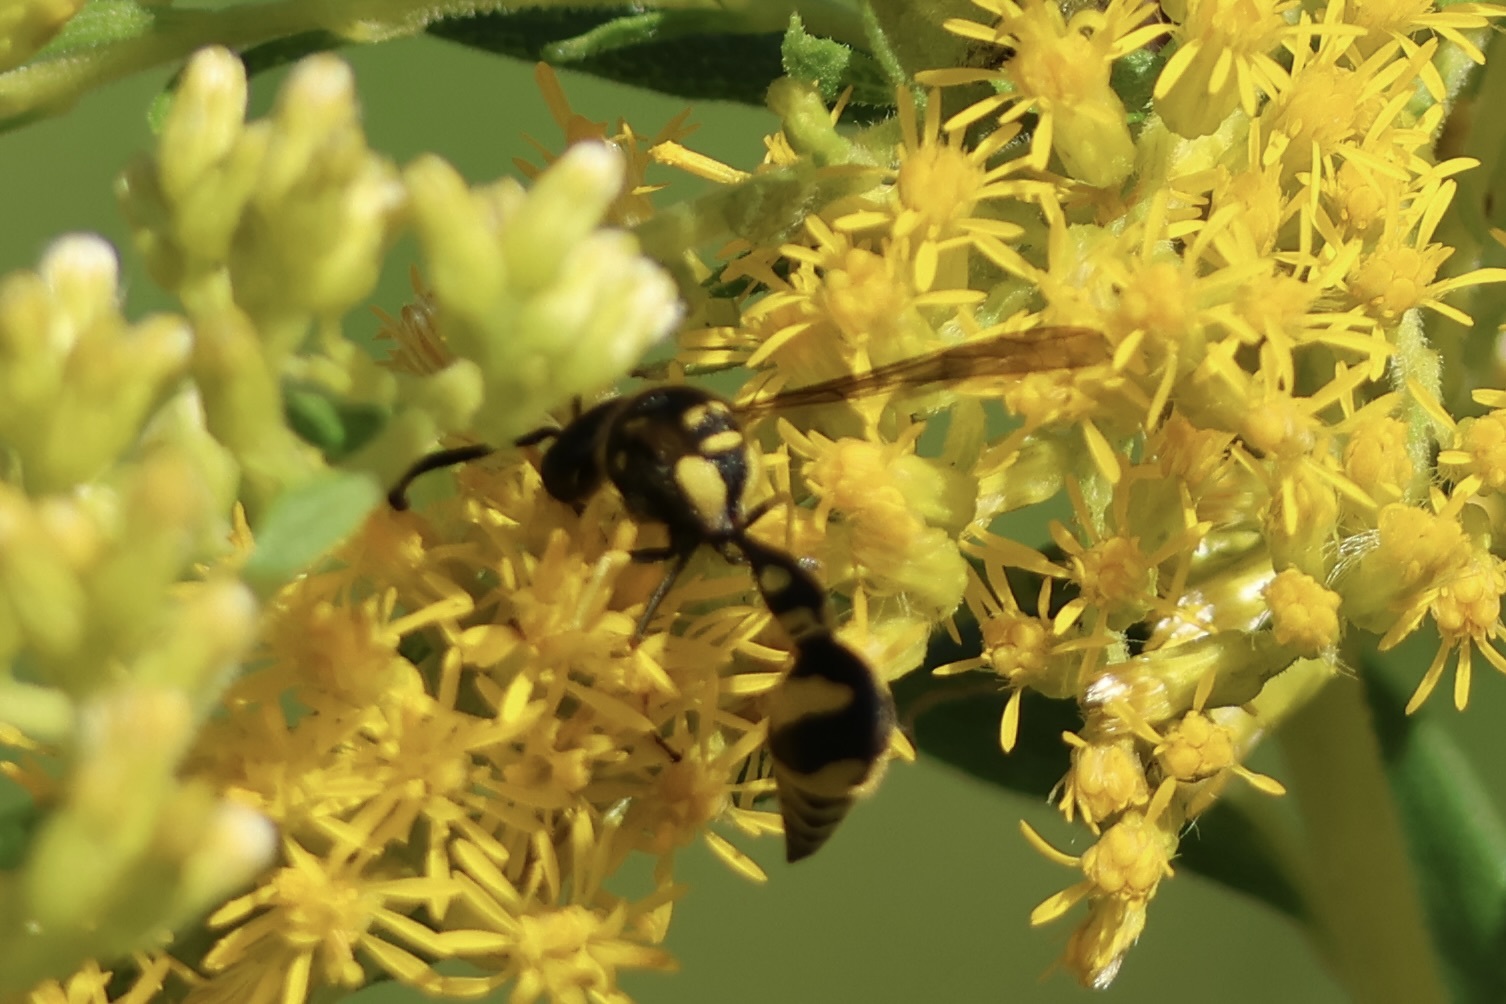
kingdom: Animalia
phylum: Arthropoda
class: Insecta
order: Hymenoptera
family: Vespidae
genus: Eumenes
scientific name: Eumenes mediterraneus
